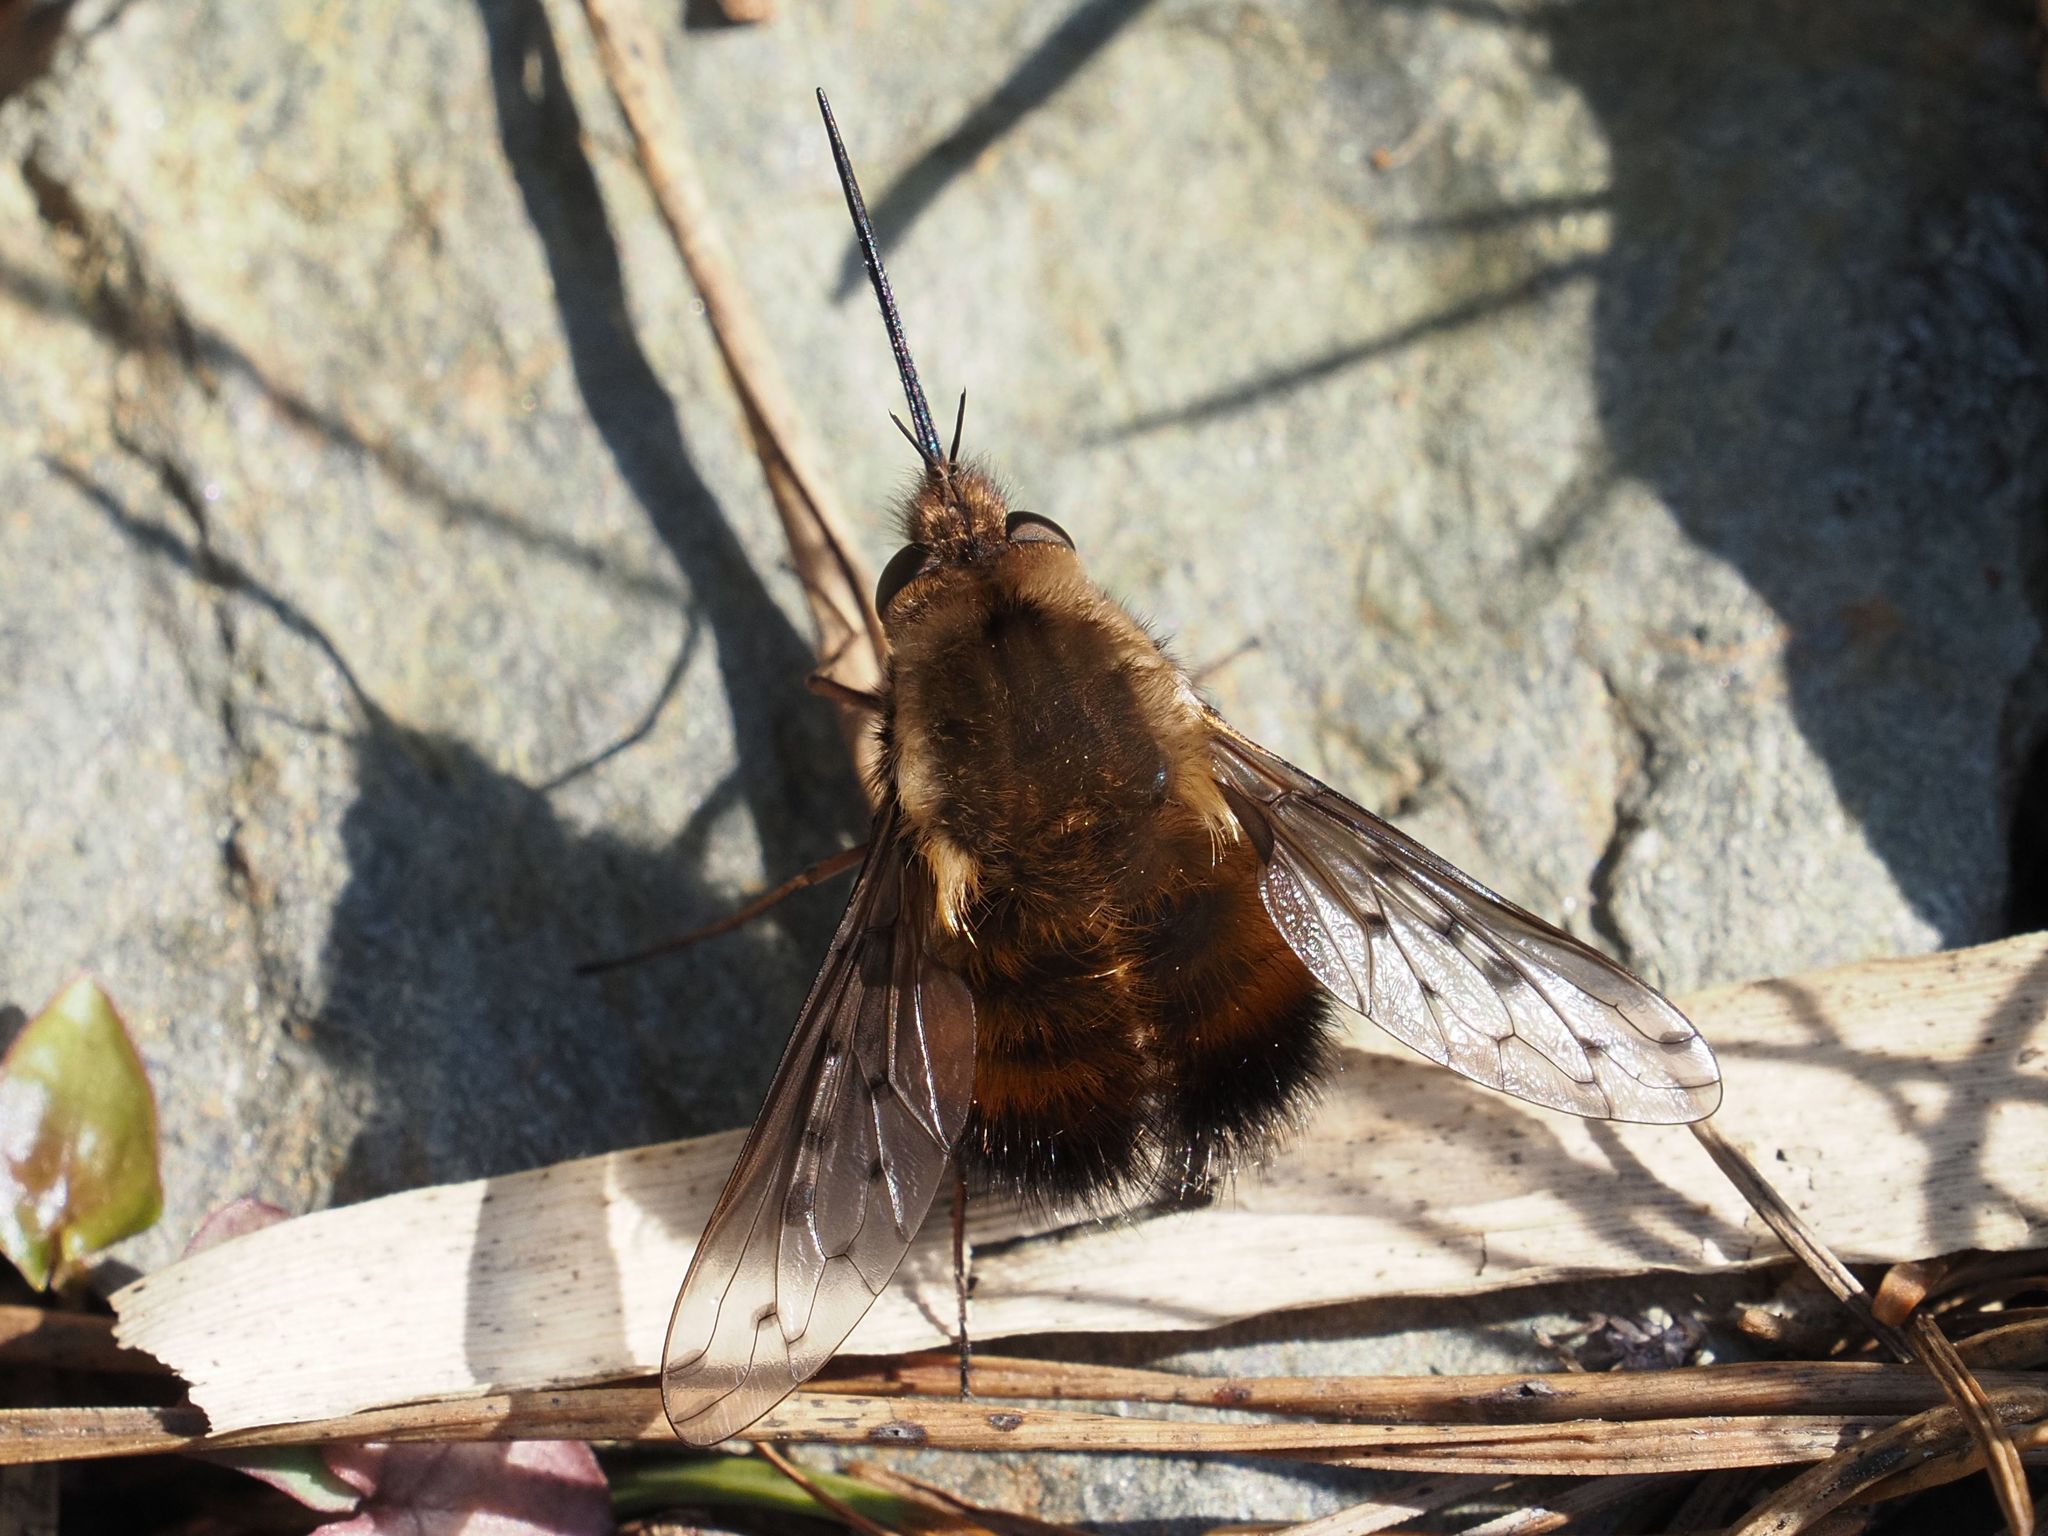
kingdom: Animalia
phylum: Arthropoda
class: Insecta
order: Diptera
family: Bombyliidae
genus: Bombylius
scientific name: Bombylius discolor
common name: Dotted bee-fly
